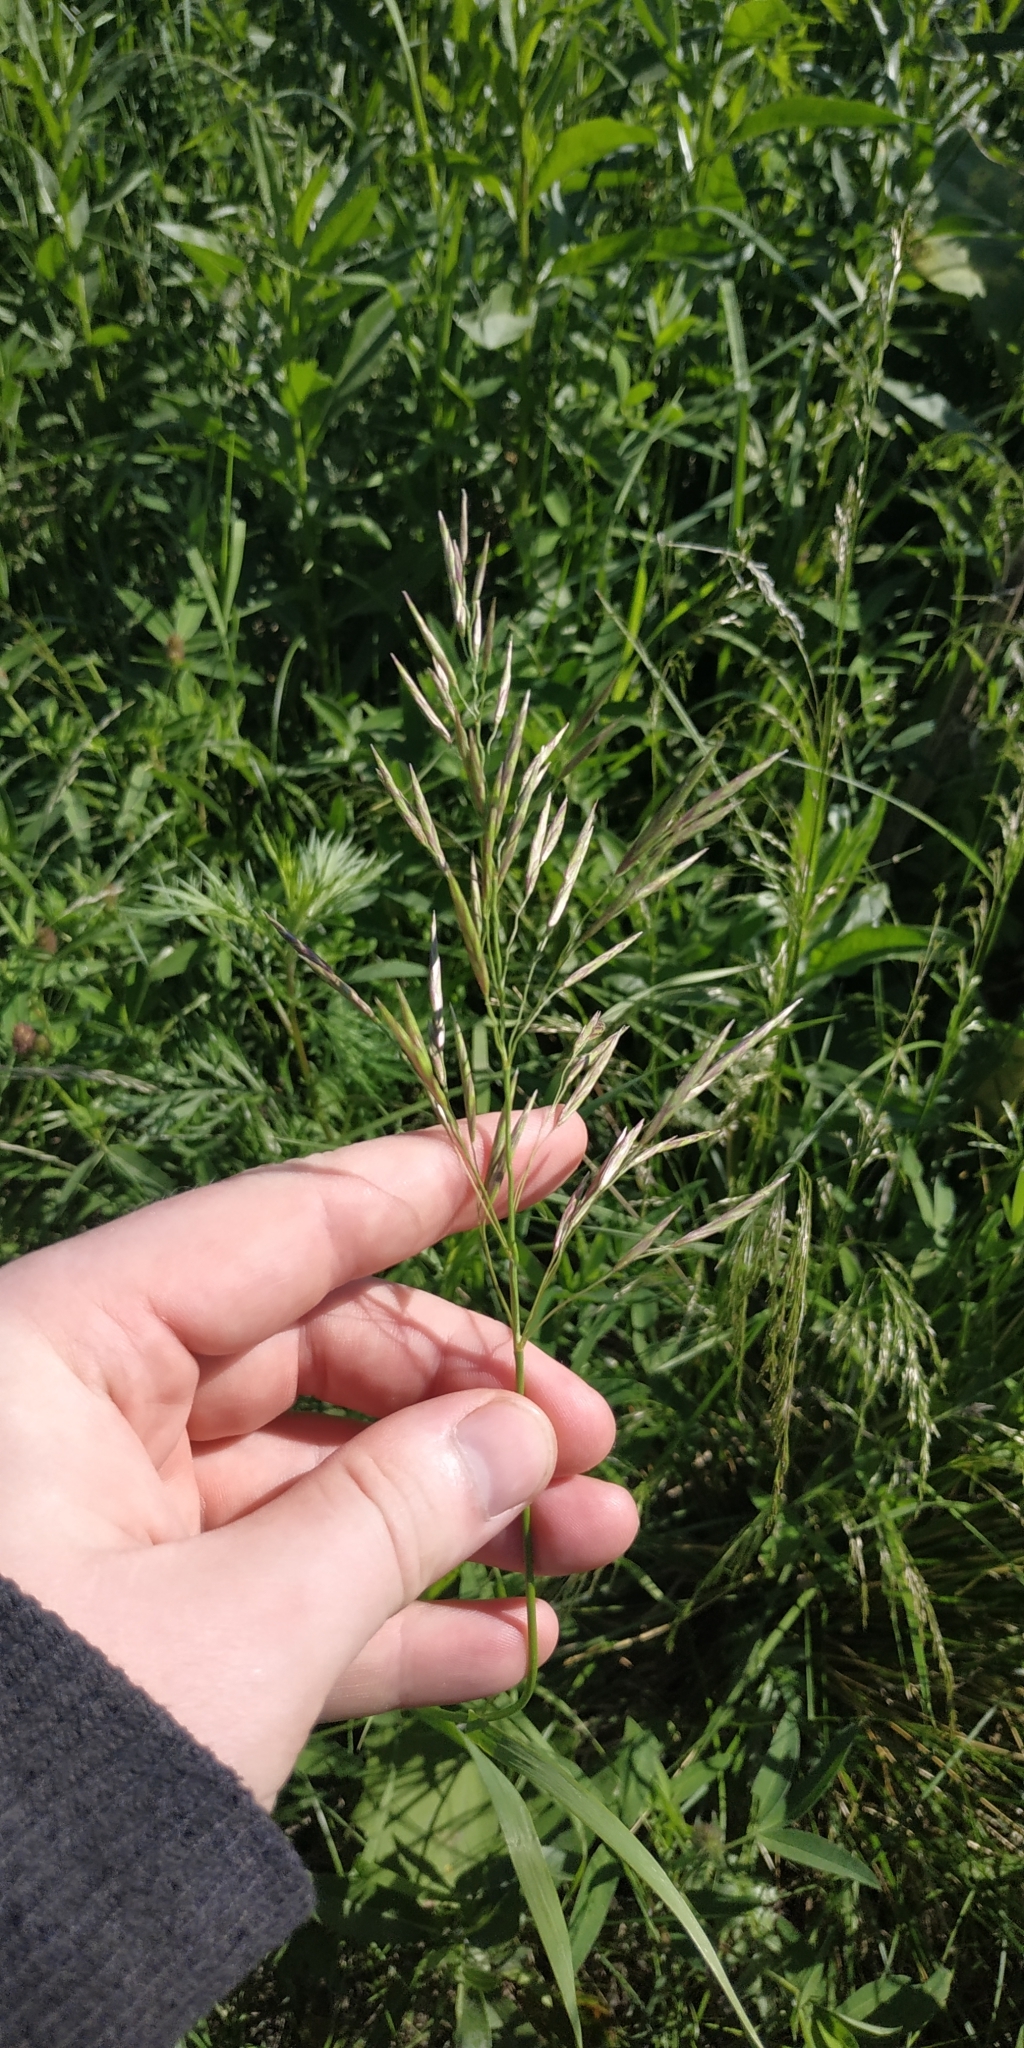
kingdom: Plantae
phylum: Tracheophyta
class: Liliopsida
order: Poales
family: Poaceae
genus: Bromus
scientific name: Bromus inermis
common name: Smooth brome
